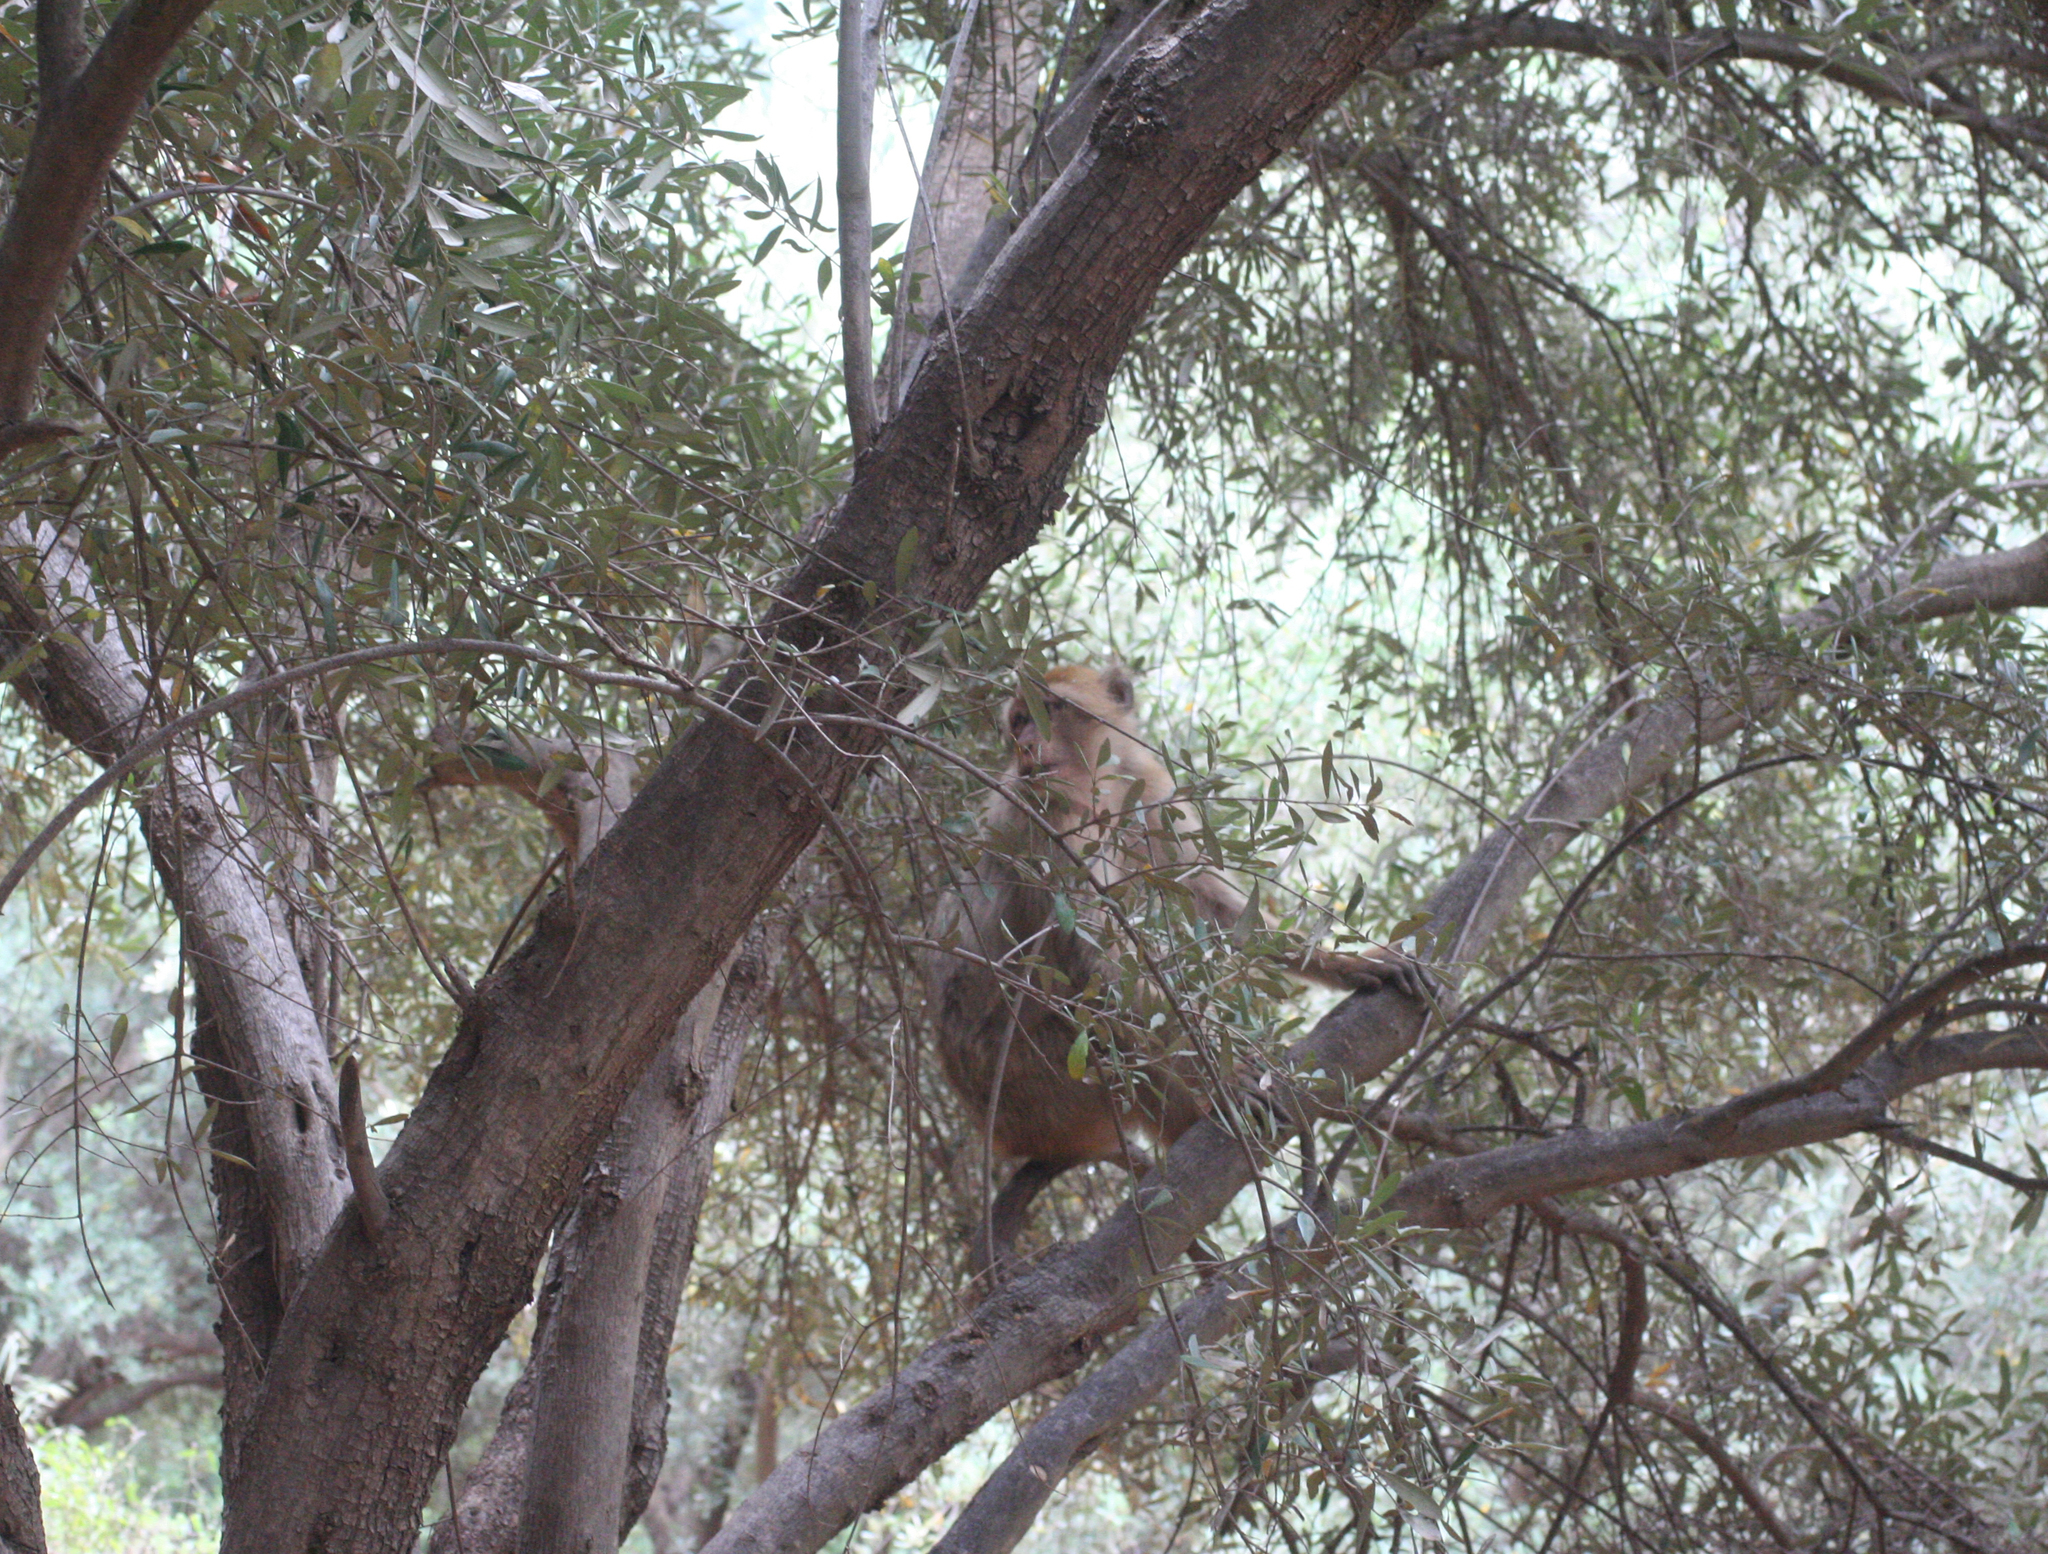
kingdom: Animalia
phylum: Chordata
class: Mammalia
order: Primates
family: Cercopithecidae
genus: Macaca
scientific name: Macaca sylvanus
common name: Barbary macaque
